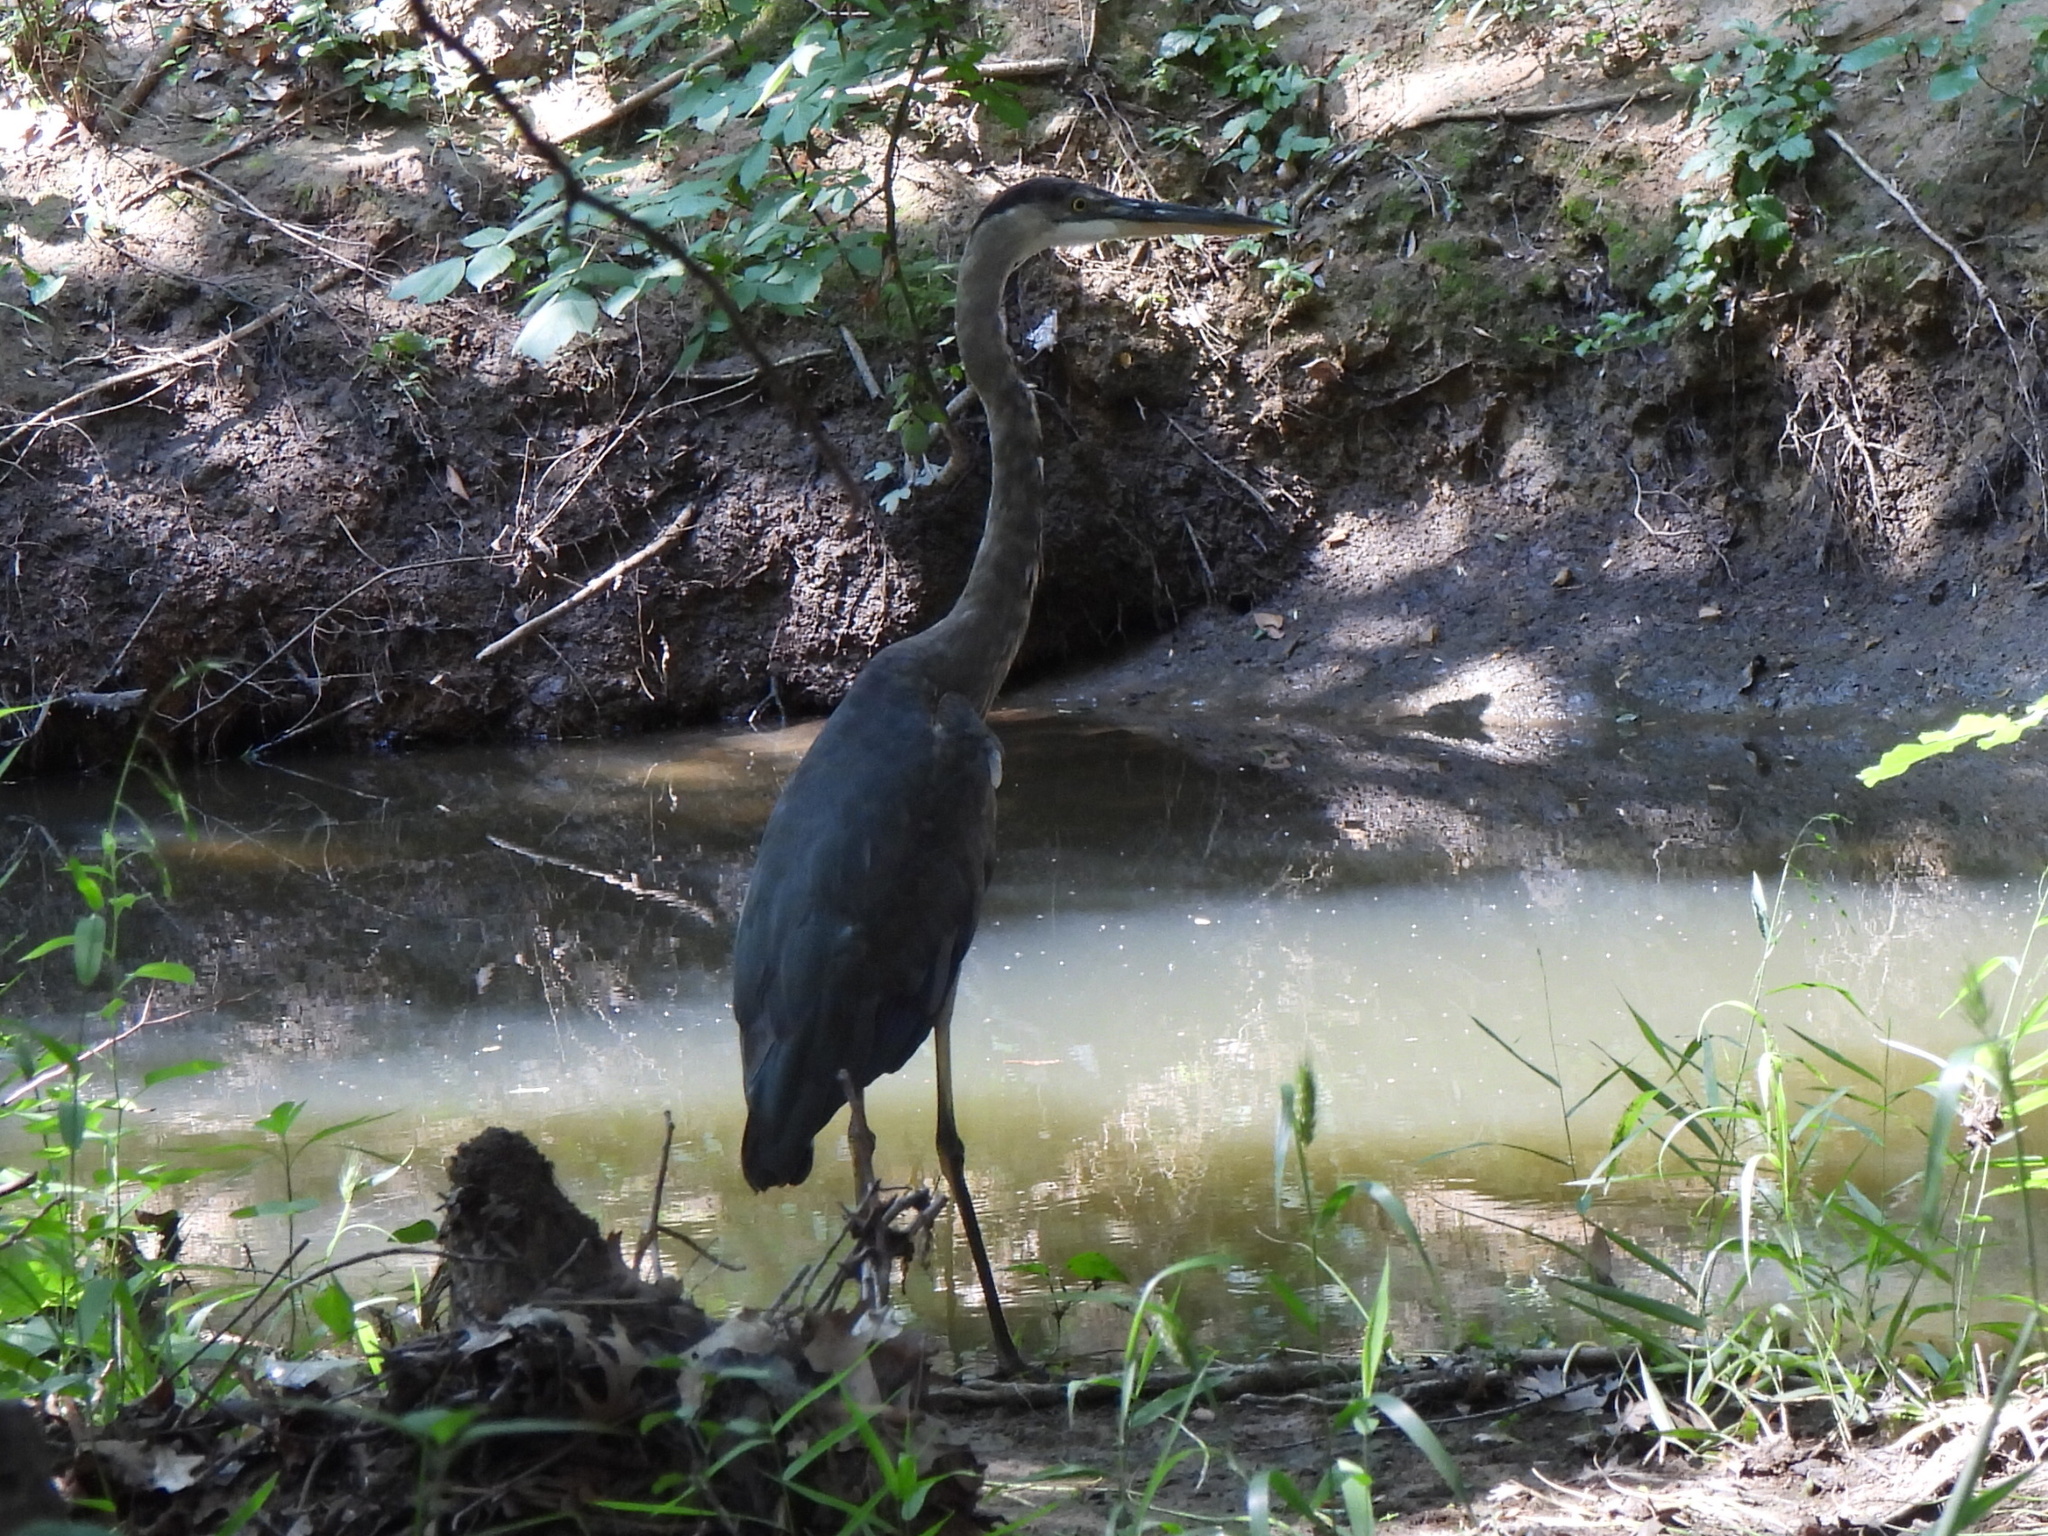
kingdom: Animalia
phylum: Chordata
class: Aves
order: Pelecaniformes
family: Ardeidae
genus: Ardea
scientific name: Ardea herodias
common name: Great blue heron
